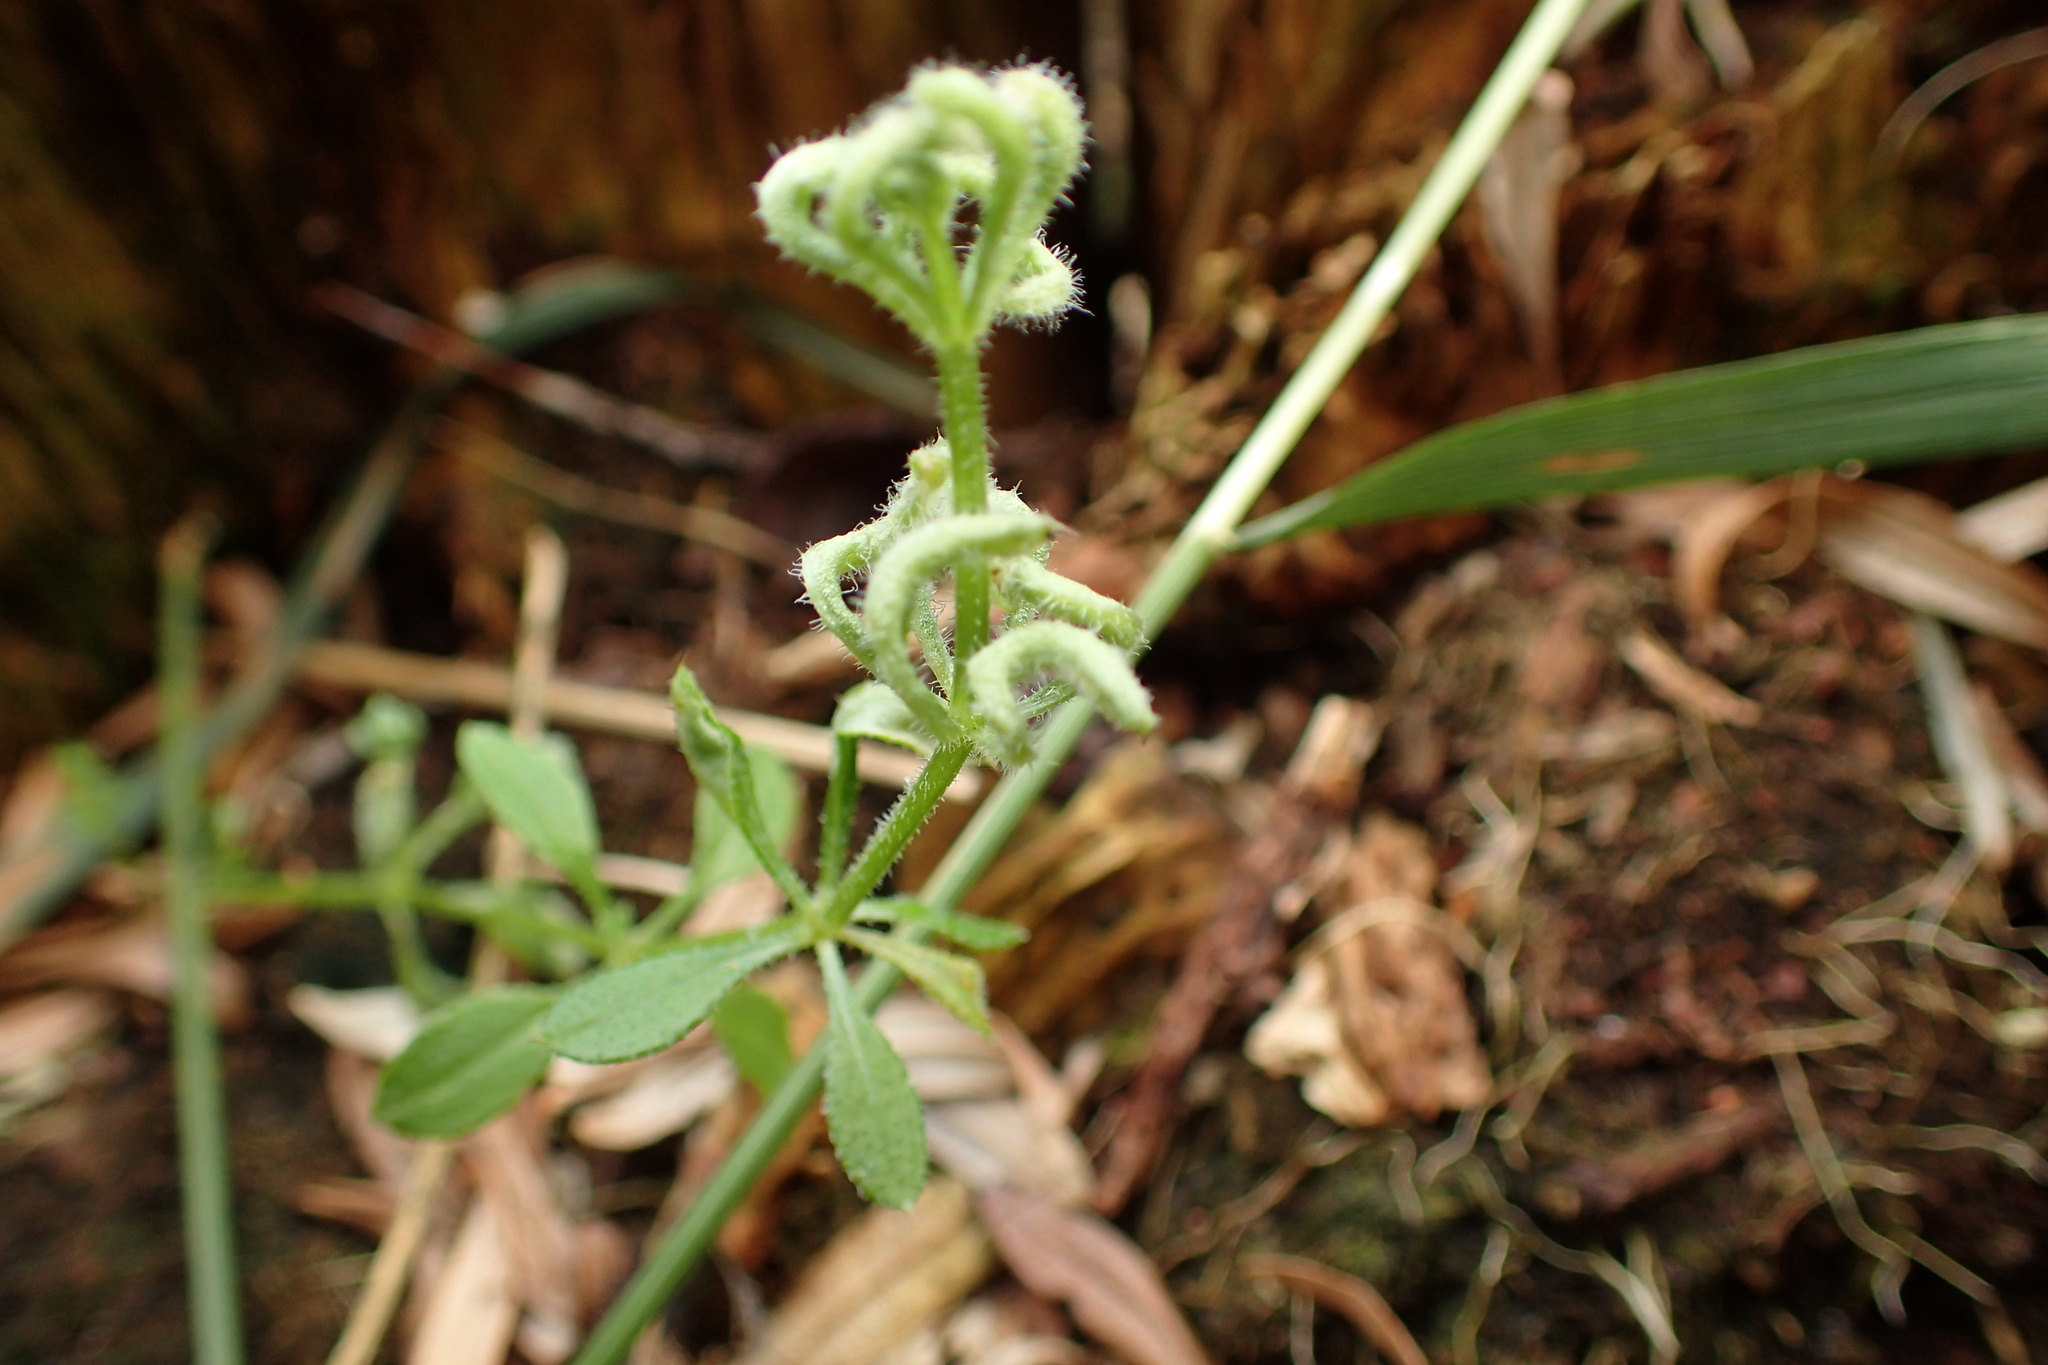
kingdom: Animalia
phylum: Arthropoda
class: Arachnida
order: Trombidiformes
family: Eriophyidae
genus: Cecidophyes
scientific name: Cecidophyes rouhollahi
